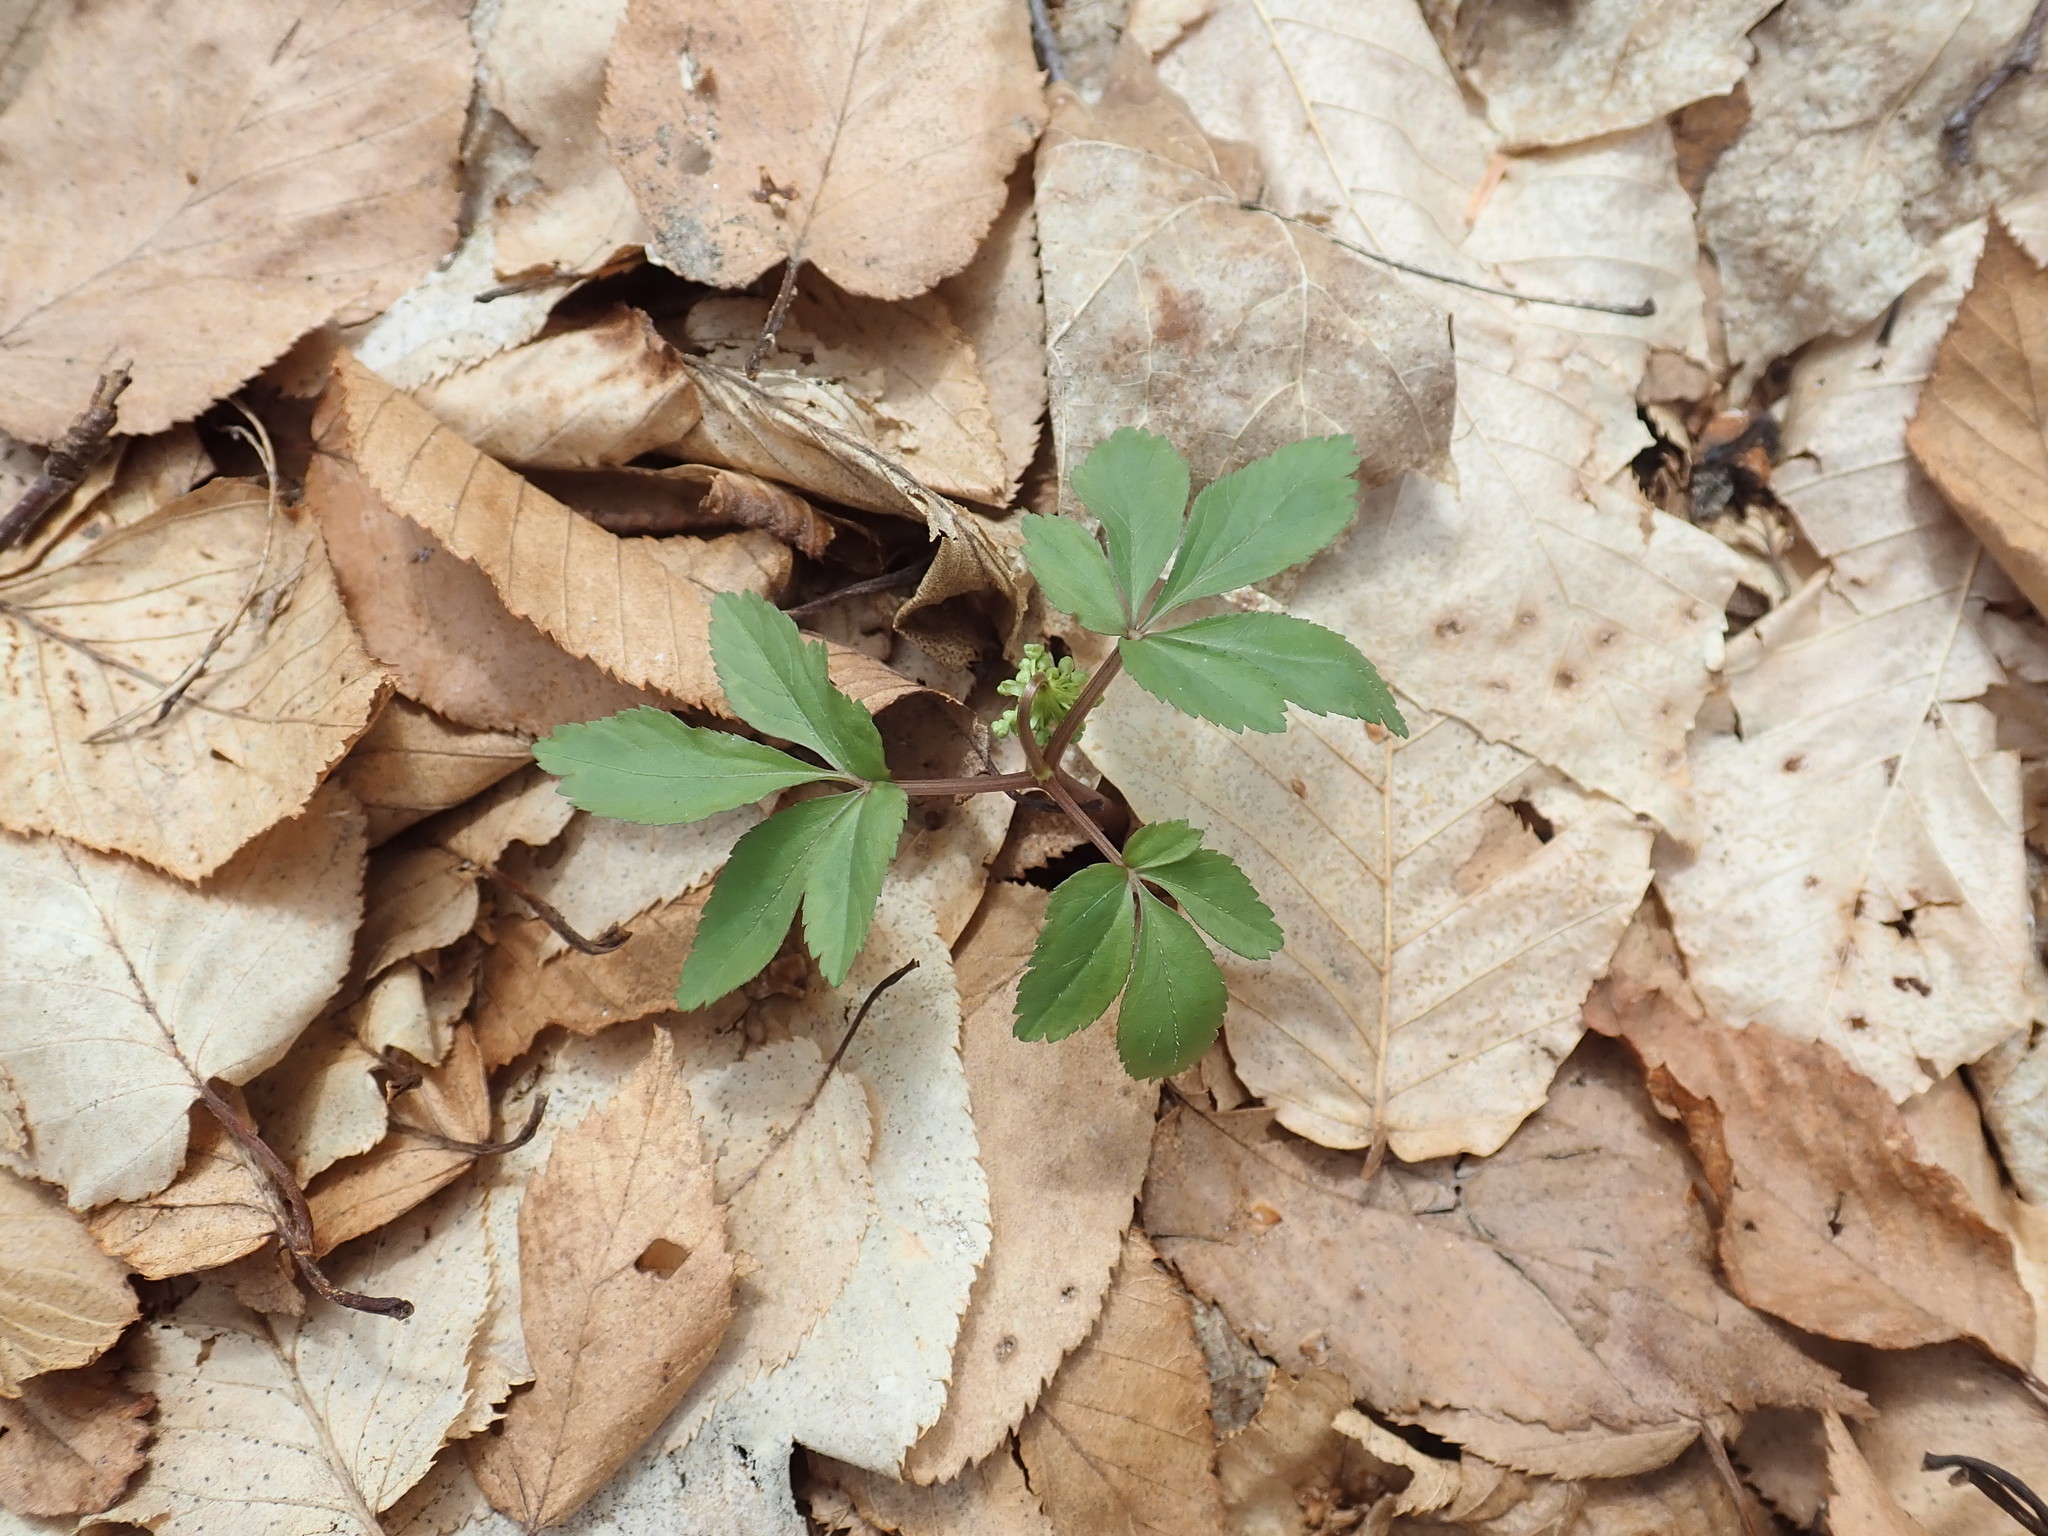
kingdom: Plantae
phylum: Tracheophyta
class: Magnoliopsida
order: Apiales
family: Araliaceae
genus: Panax
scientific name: Panax trifolius
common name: Dwarf ginseng
